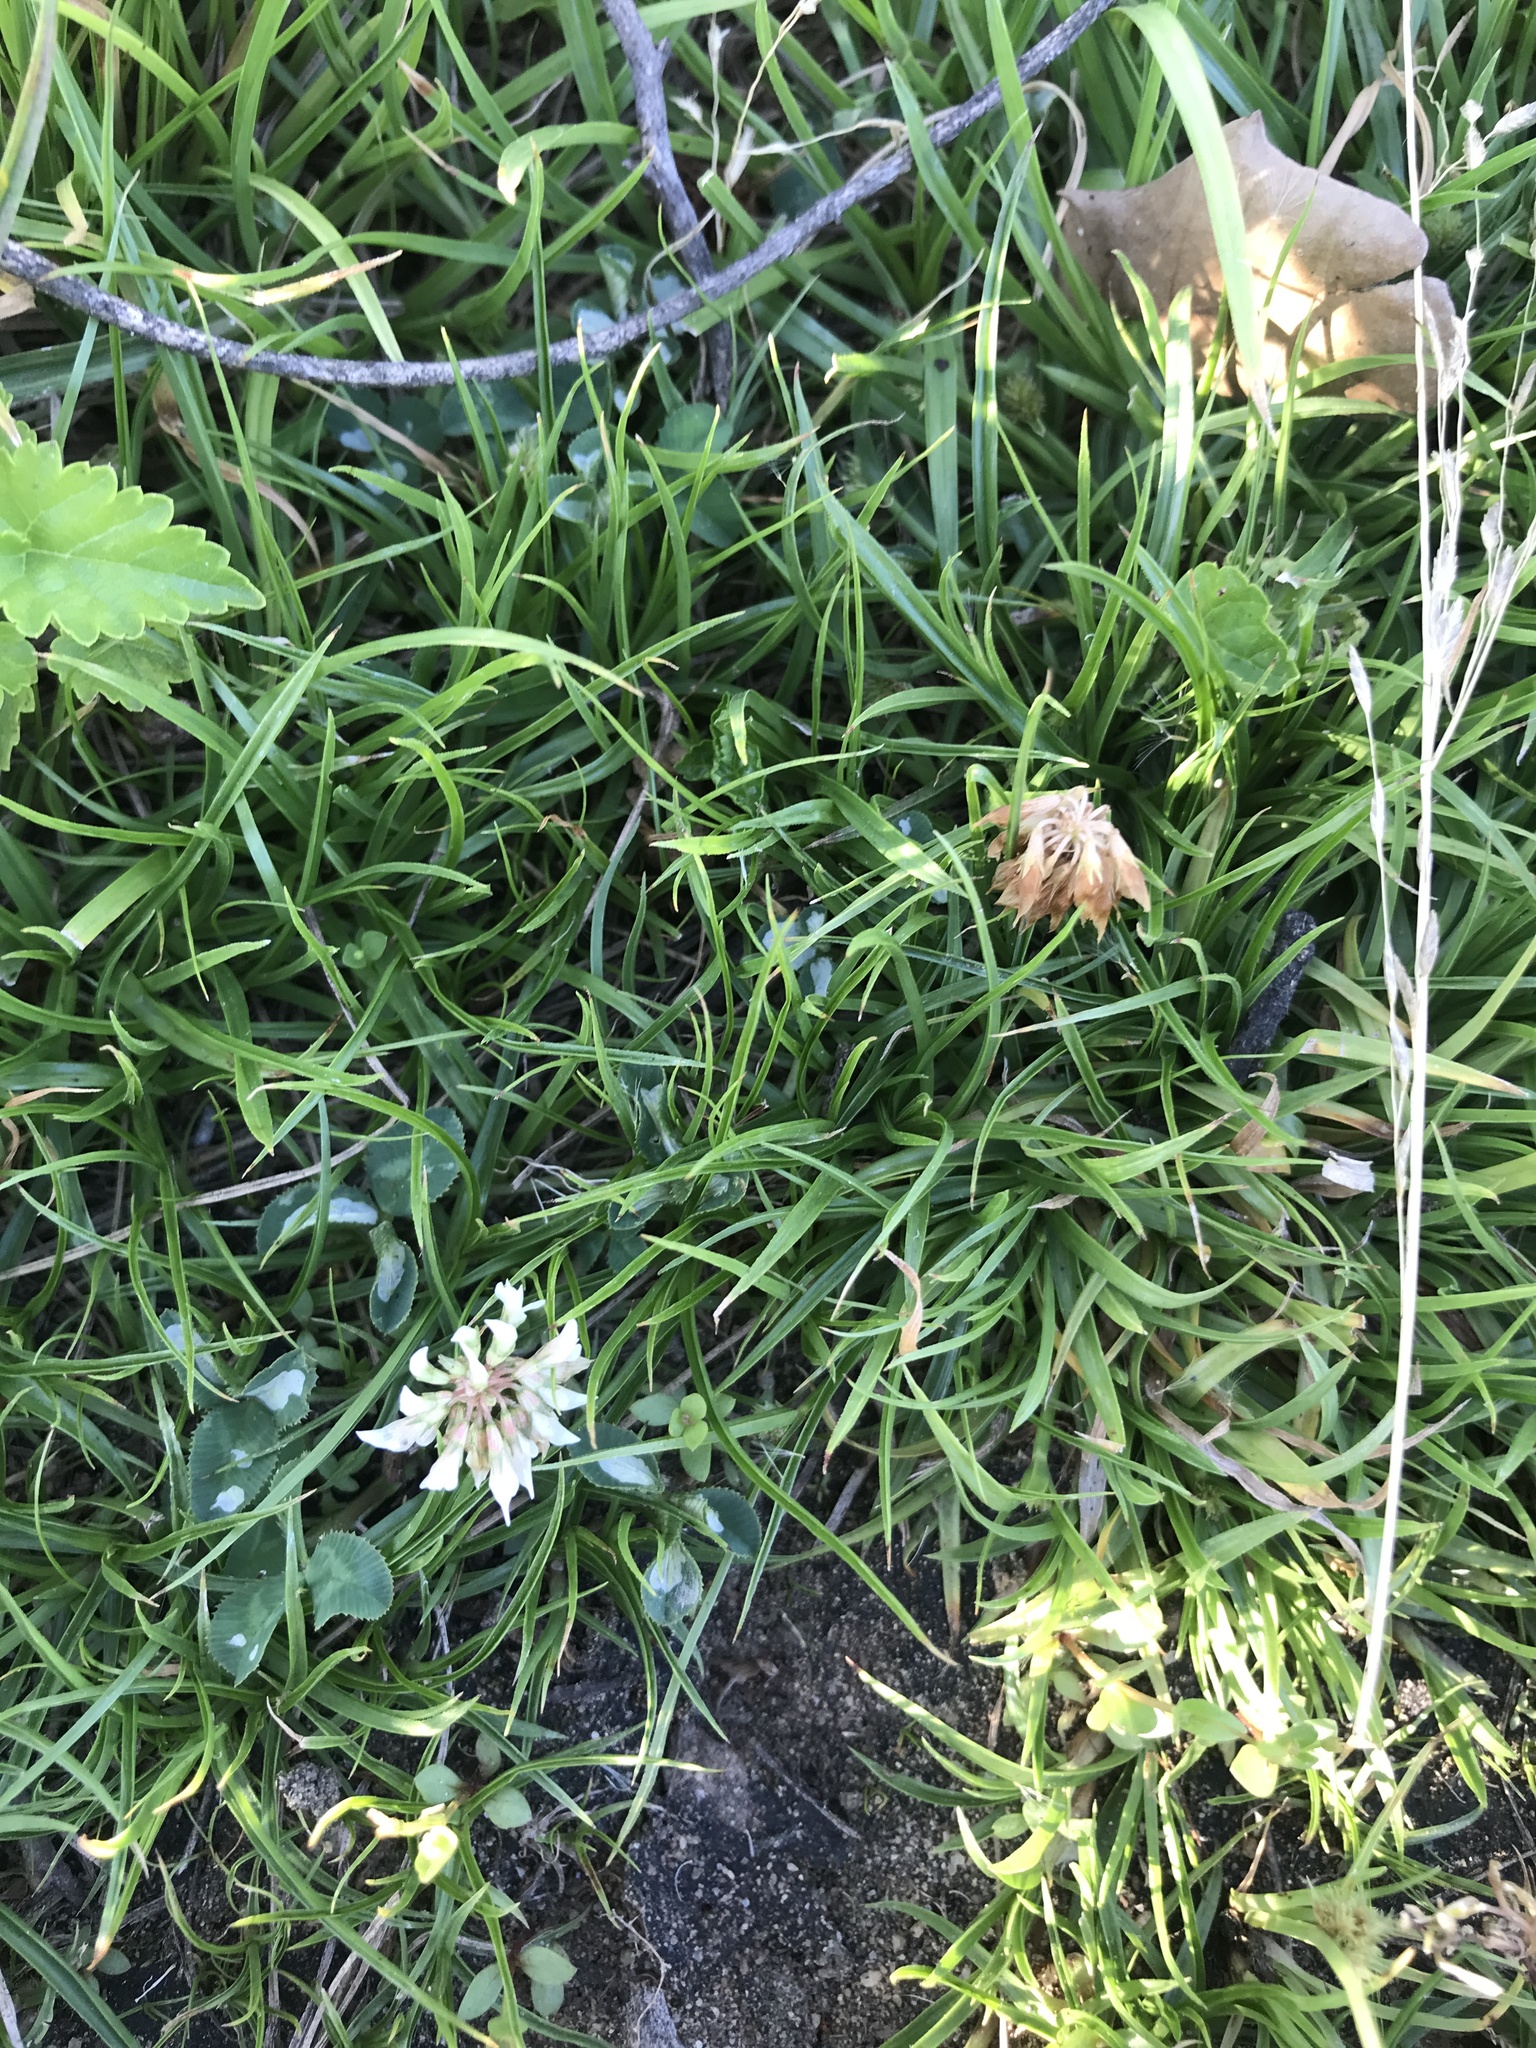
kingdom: Plantae
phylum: Tracheophyta
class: Magnoliopsida
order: Fabales
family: Fabaceae
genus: Trifolium
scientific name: Trifolium repens
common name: White clover
